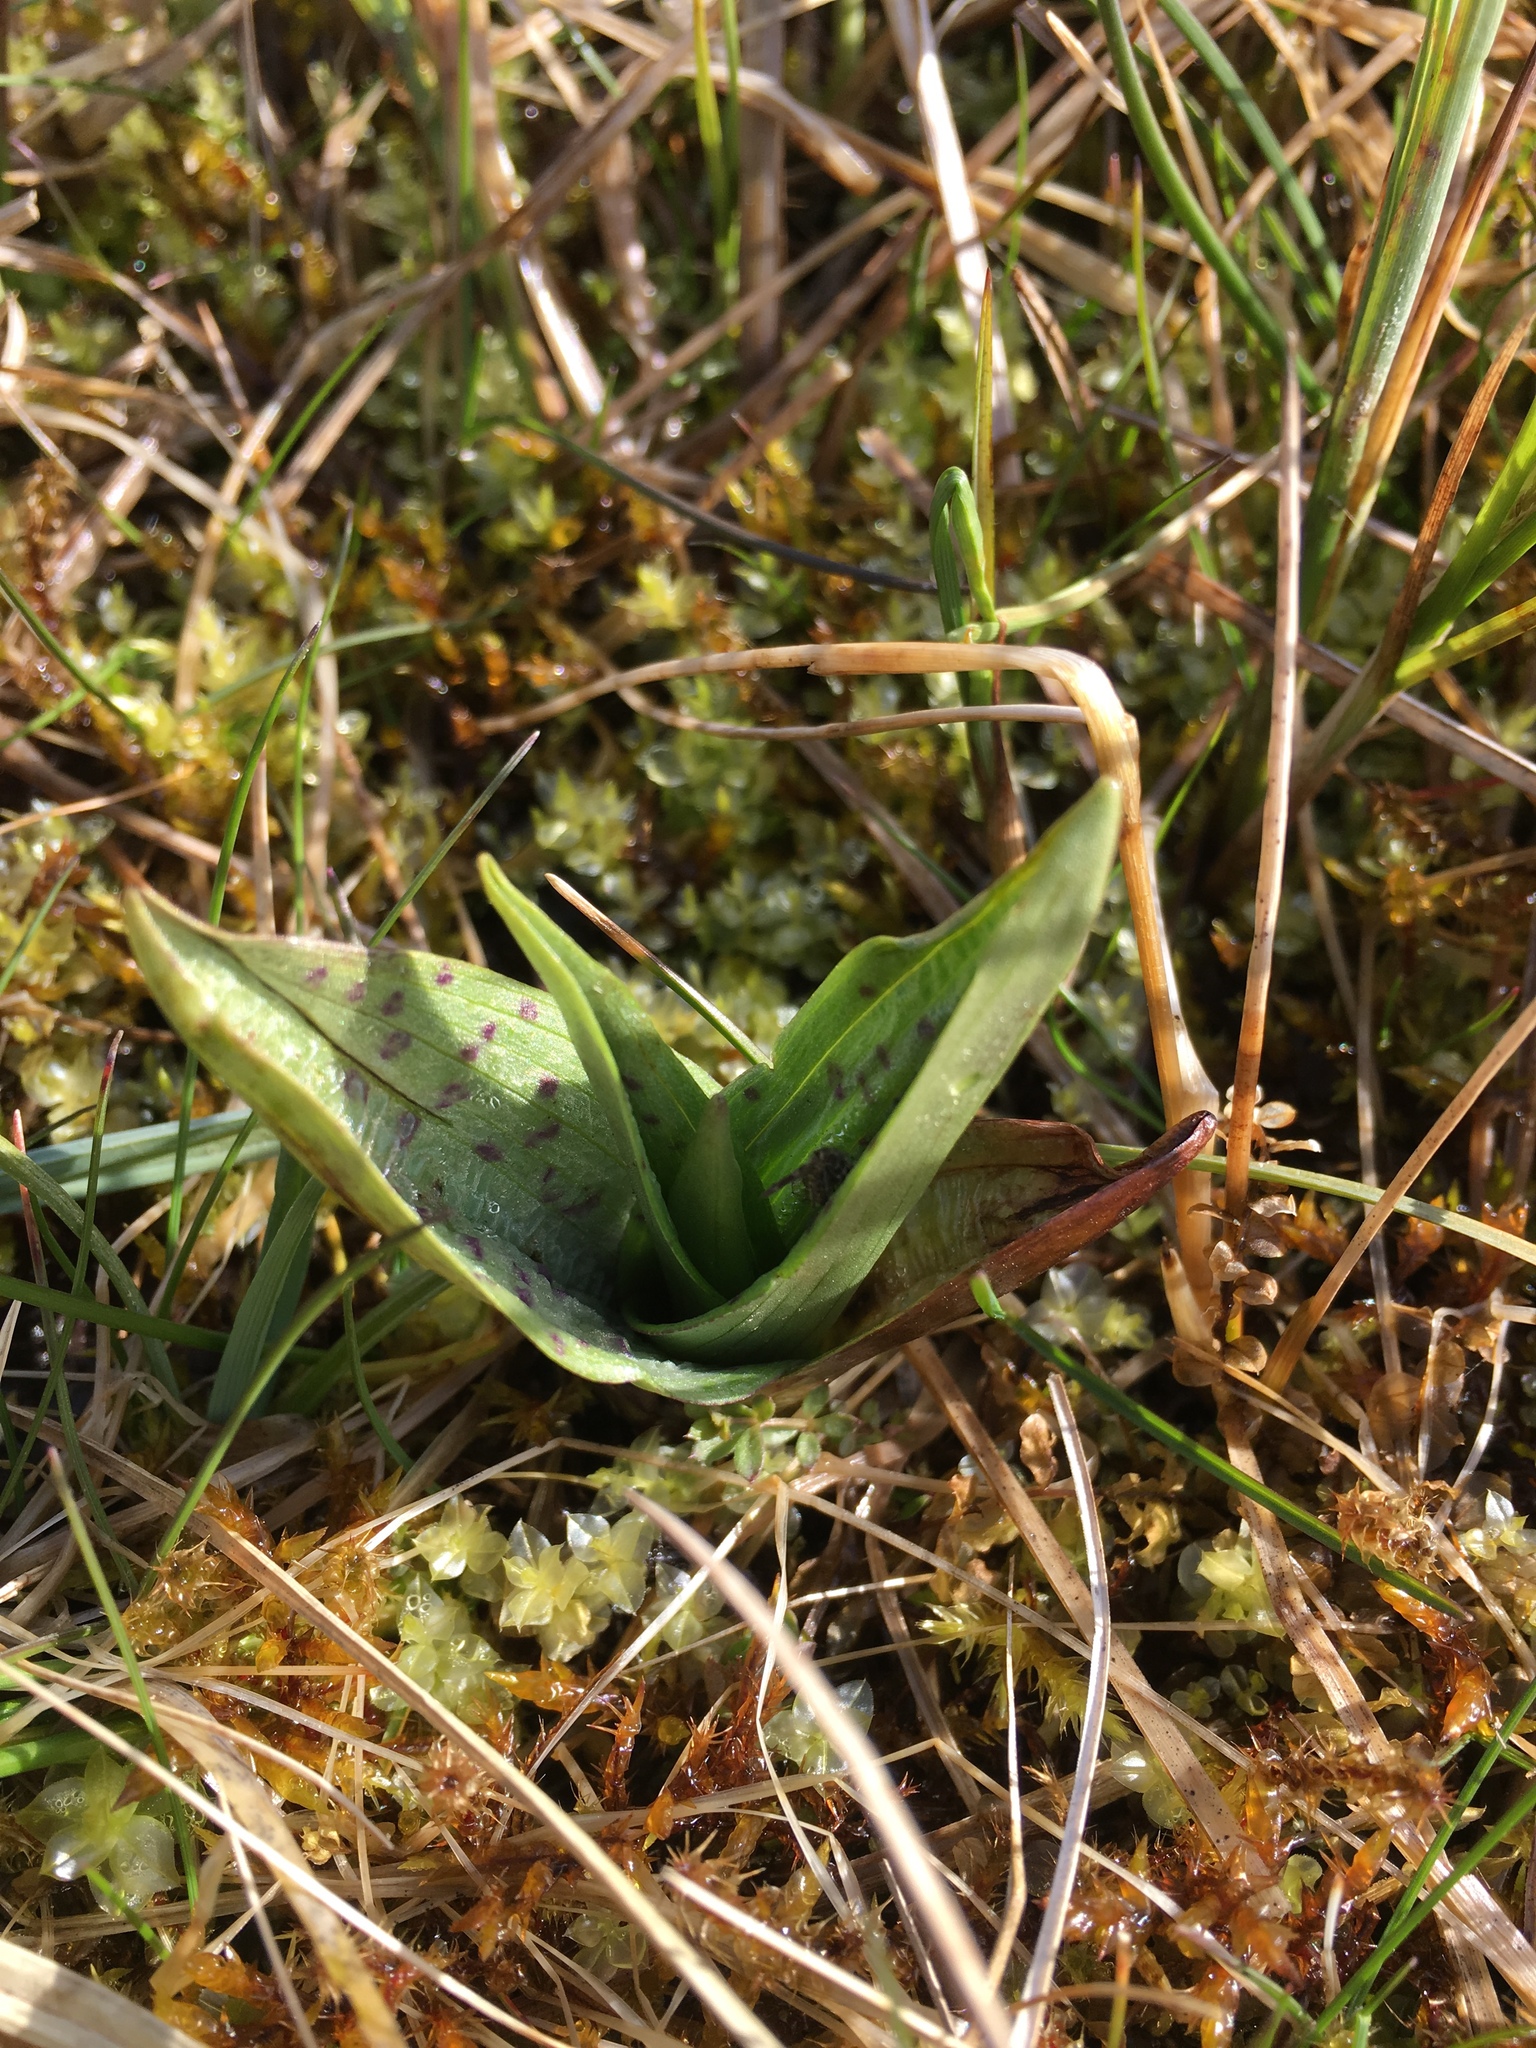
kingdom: Plantae
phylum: Tracheophyta
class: Liliopsida
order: Asparagales
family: Orchidaceae
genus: Dactylorhiza
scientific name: Dactylorhiza majalis
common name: Marsh orchid
